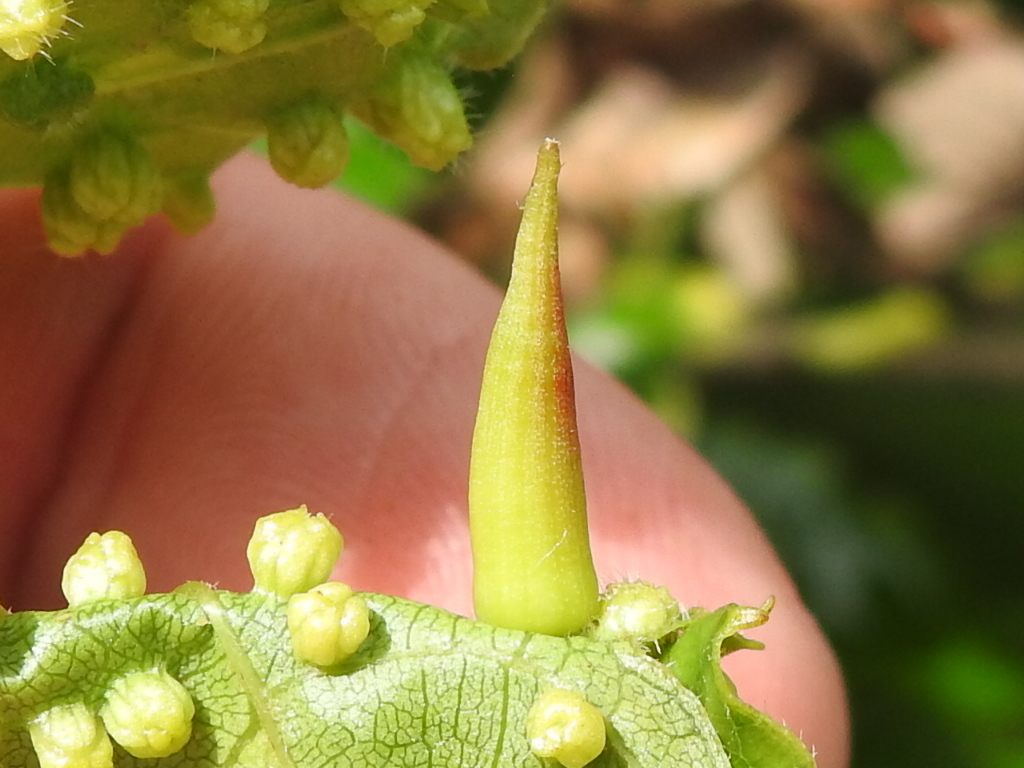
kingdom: Animalia
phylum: Arthropoda
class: Insecta
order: Diptera
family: Cecidomyiidae
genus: Ampelomyia
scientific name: Ampelomyia viticola
